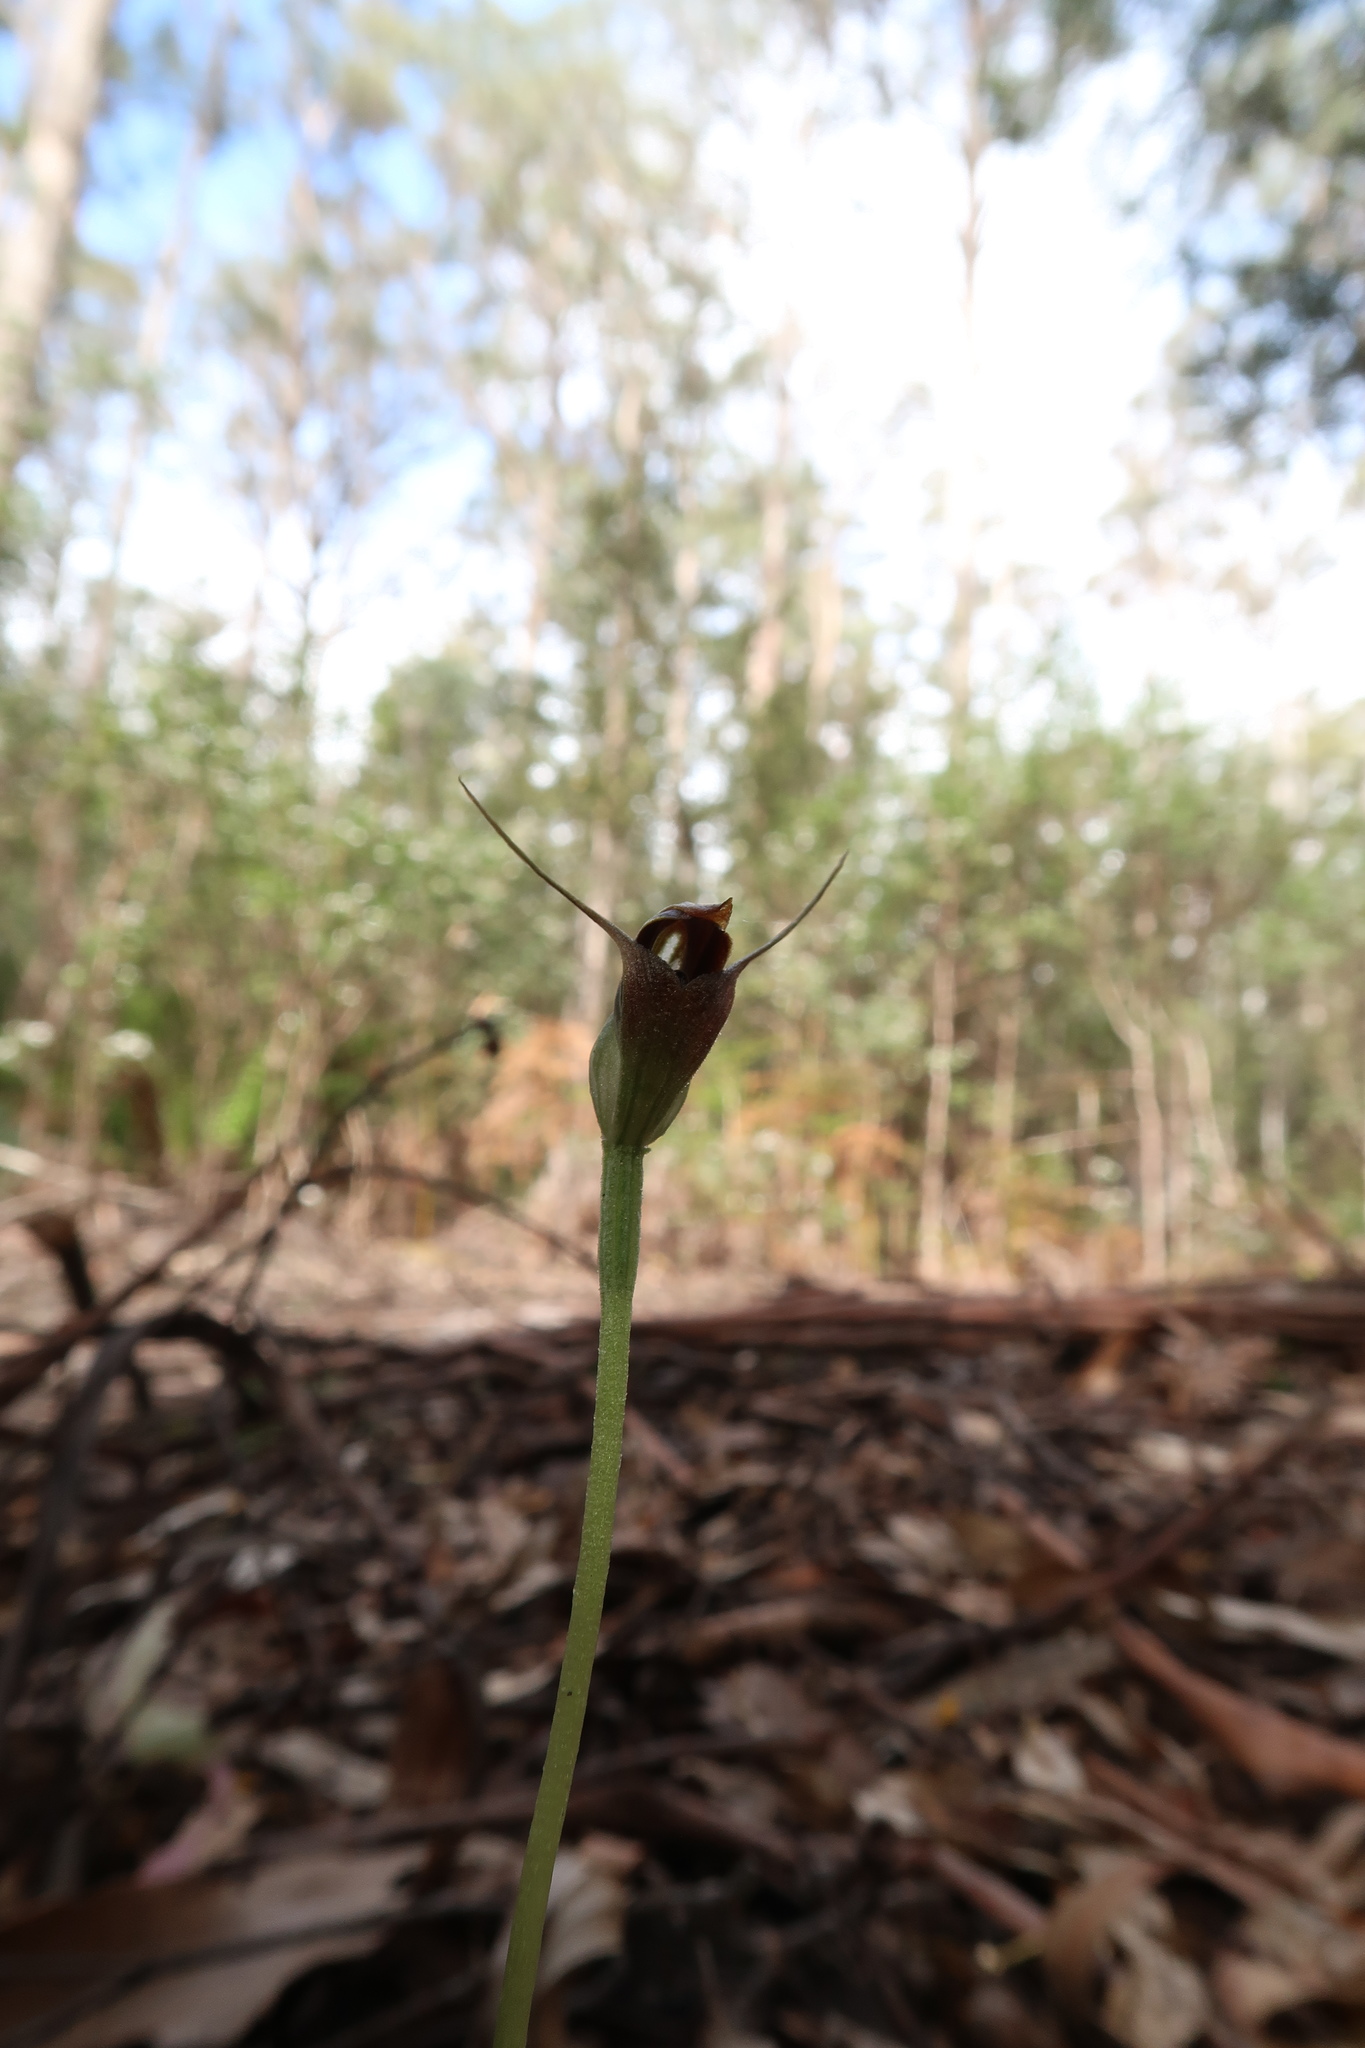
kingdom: Plantae
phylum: Tracheophyta
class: Liliopsida
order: Asparagales
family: Orchidaceae
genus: Pterostylis
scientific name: Pterostylis pedunculata
